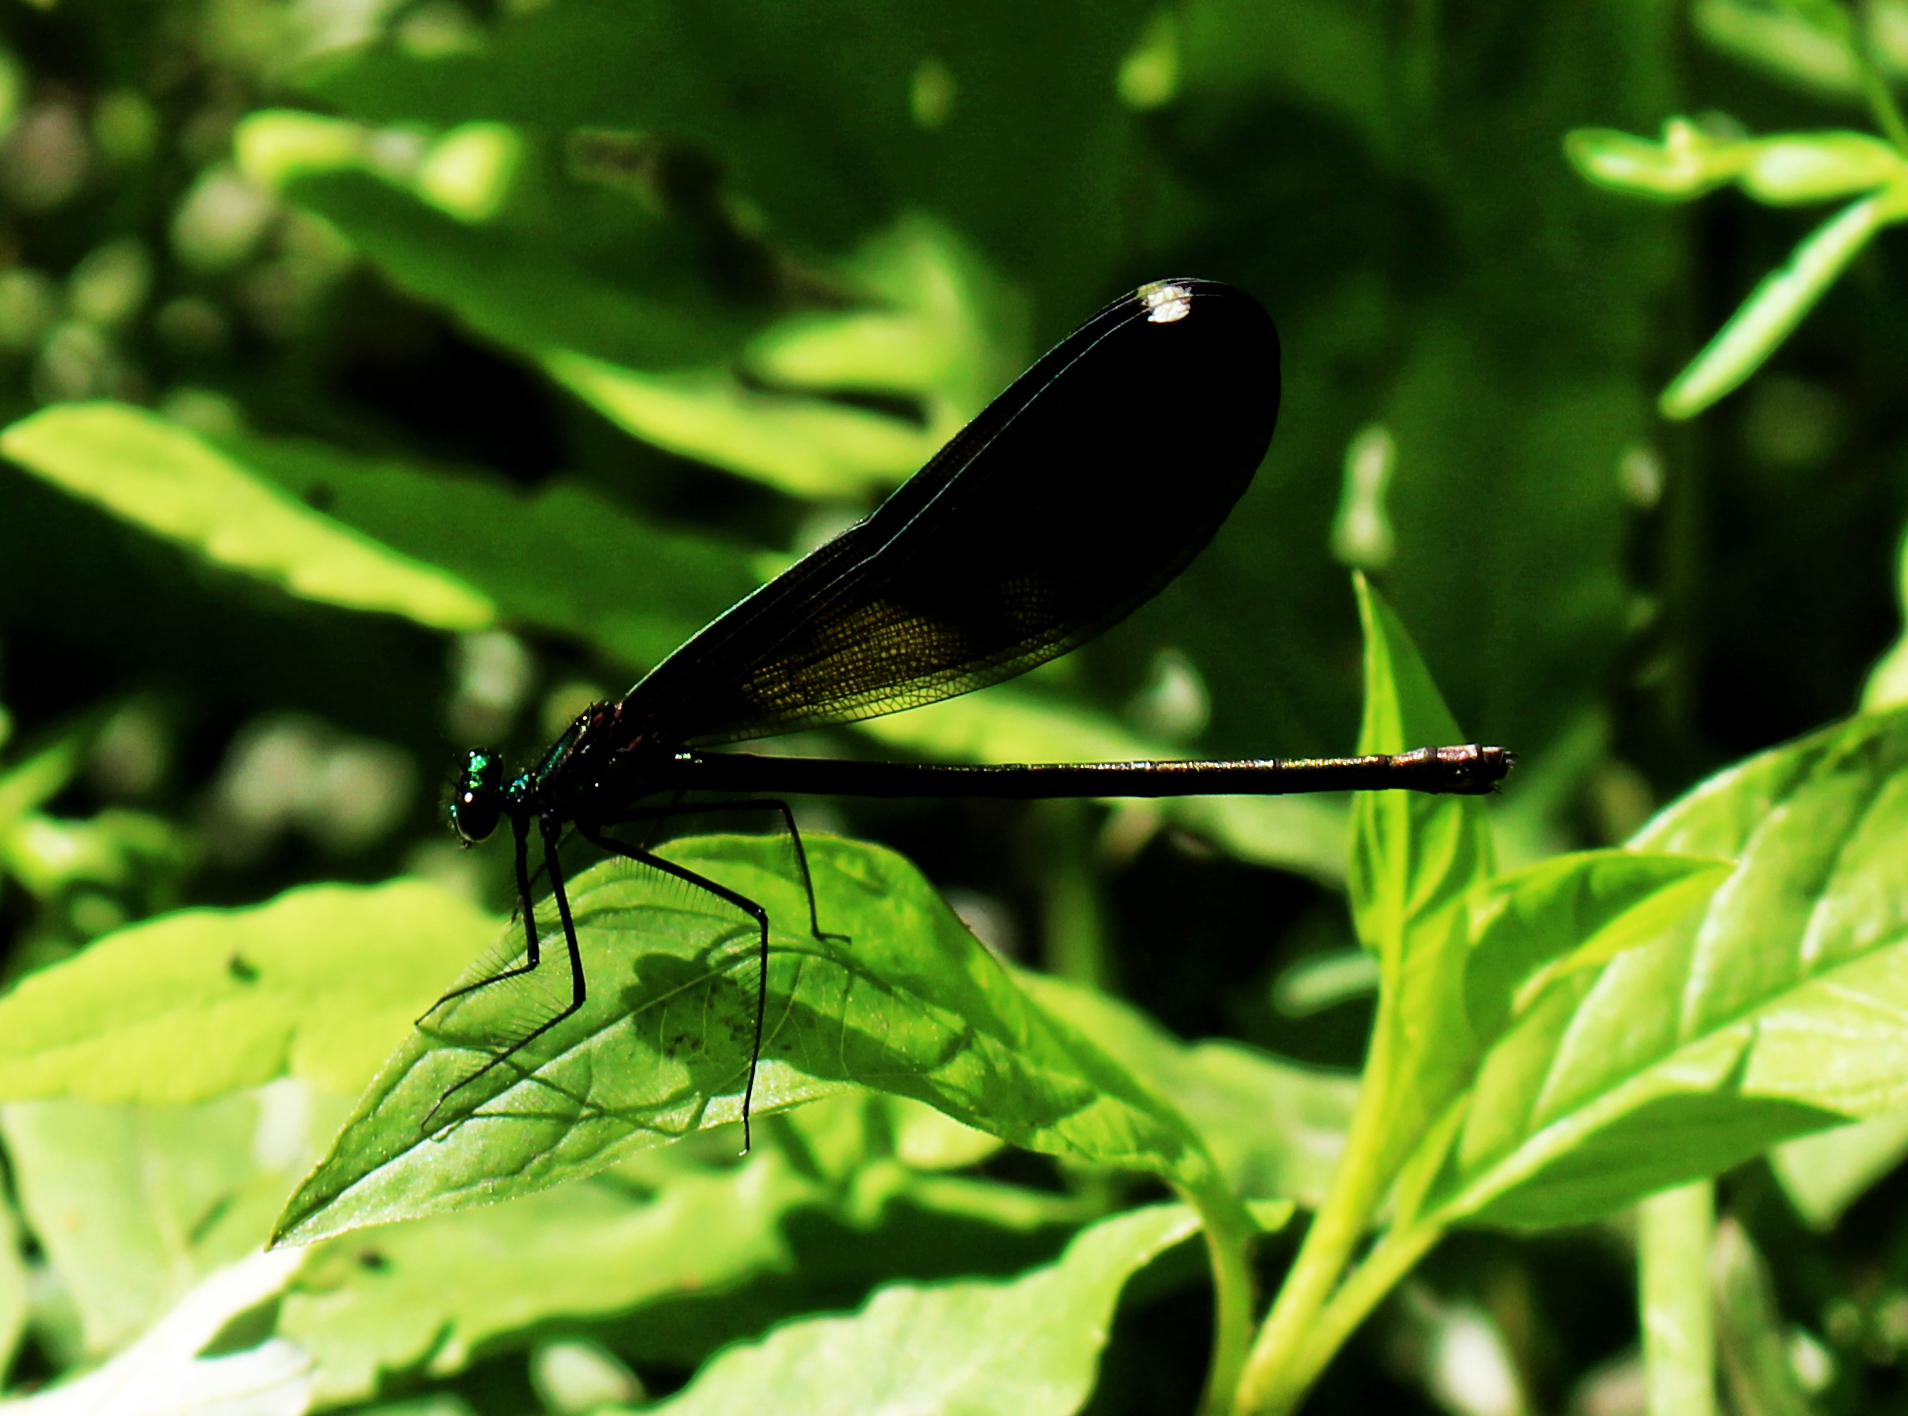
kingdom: Animalia
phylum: Arthropoda
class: Insecta
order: Odonata
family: Calopterygidae
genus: Calopteryx
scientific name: Calopteryx maculata
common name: Ebony jewelwing
